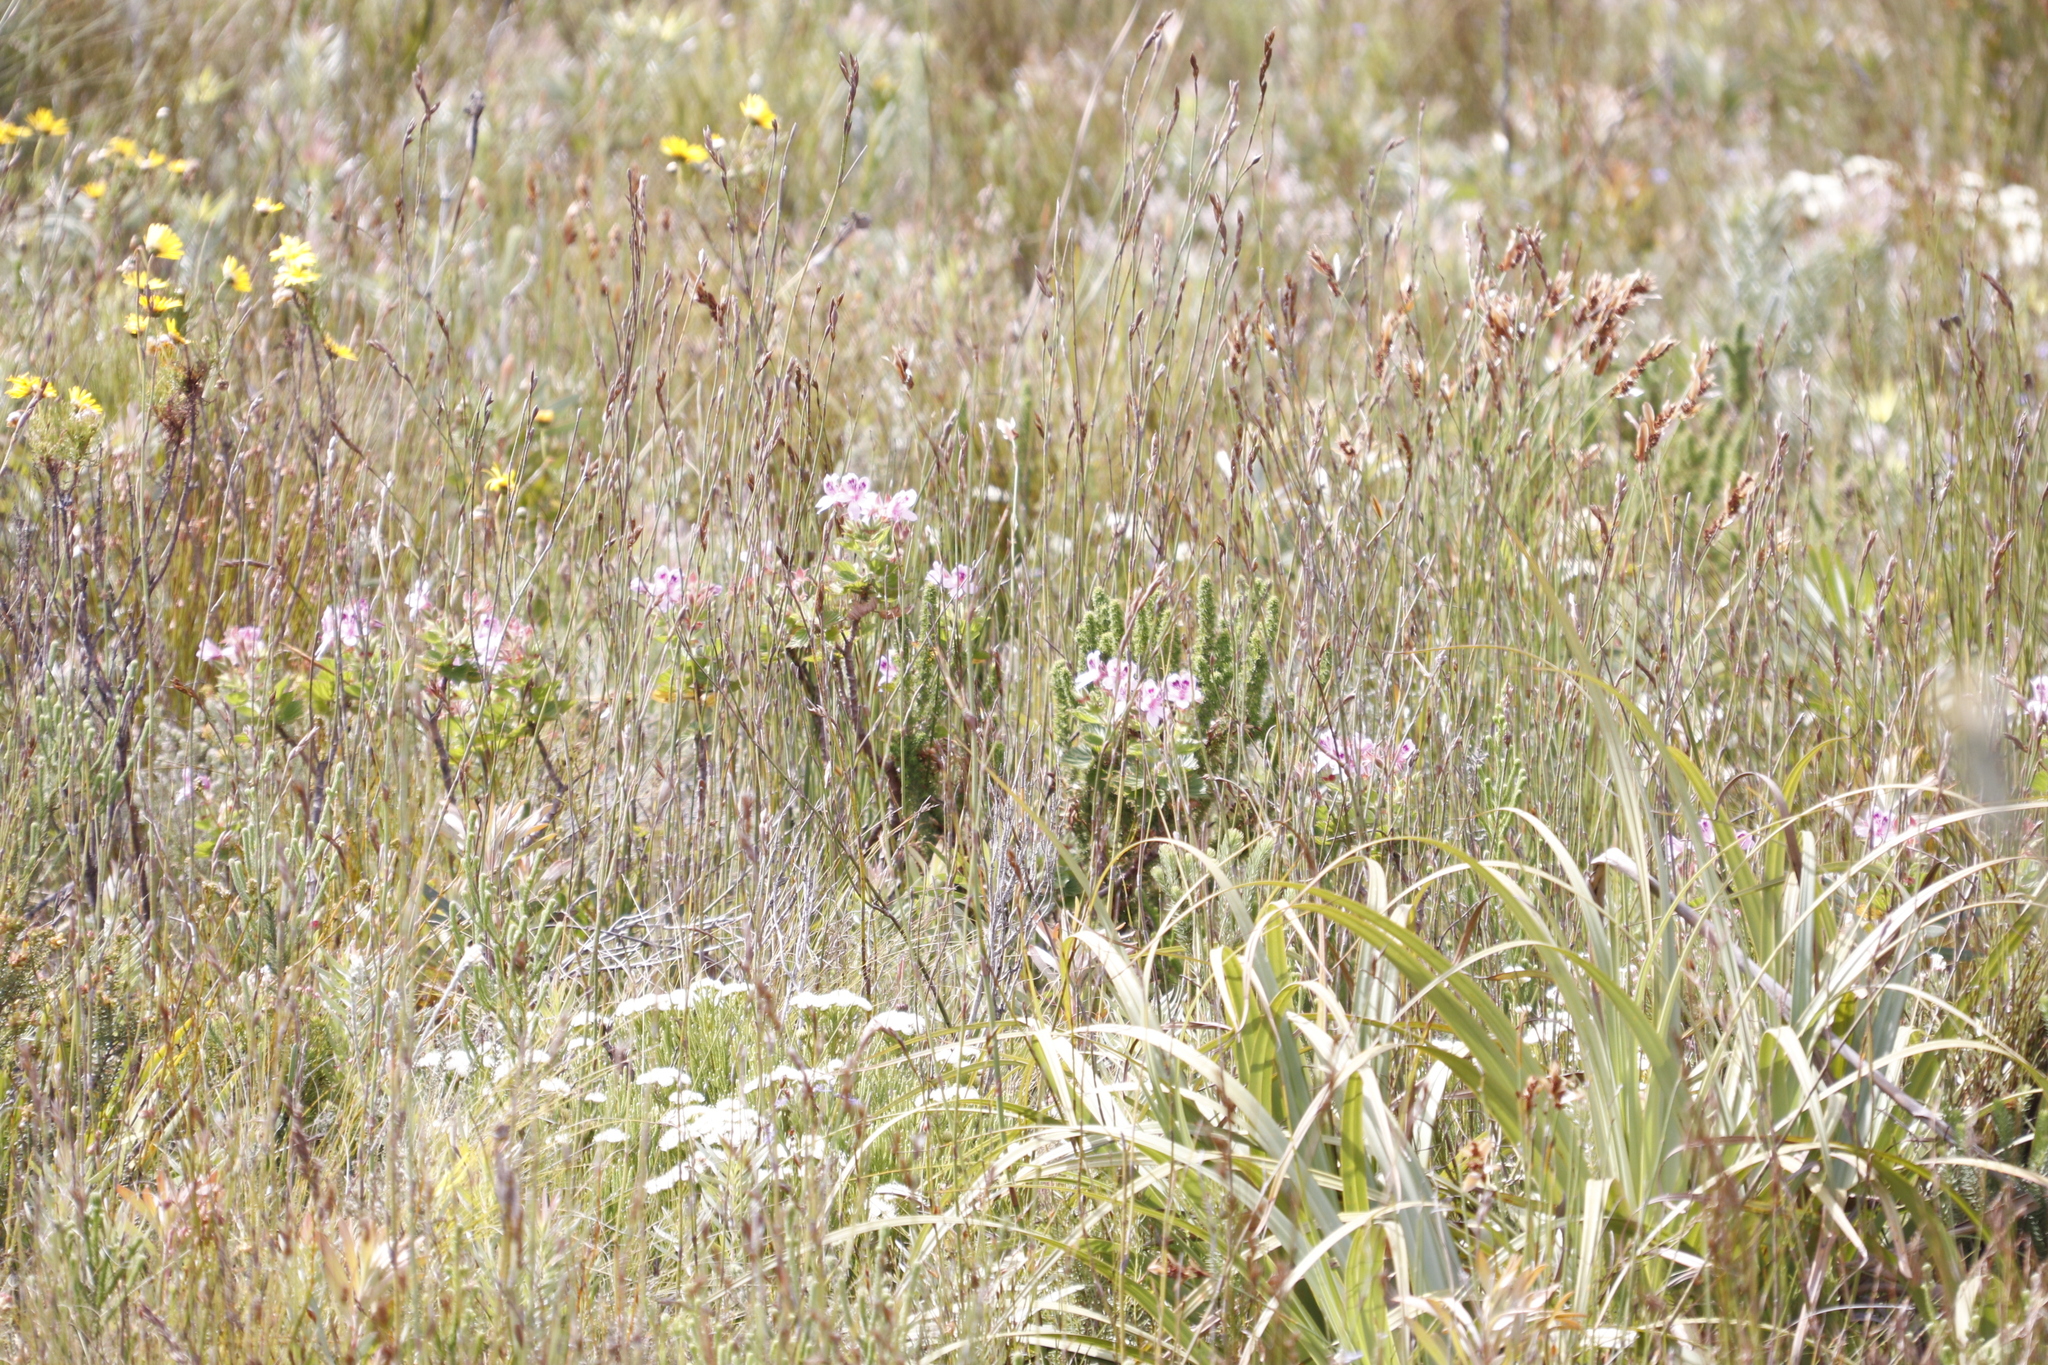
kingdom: Plantae
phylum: Tracheophyta
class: Magnoliopsida
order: Geraniales
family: Geraniaceae
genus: Pelargonium
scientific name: Pelargonium cucullatum
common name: Tree pelargonium
